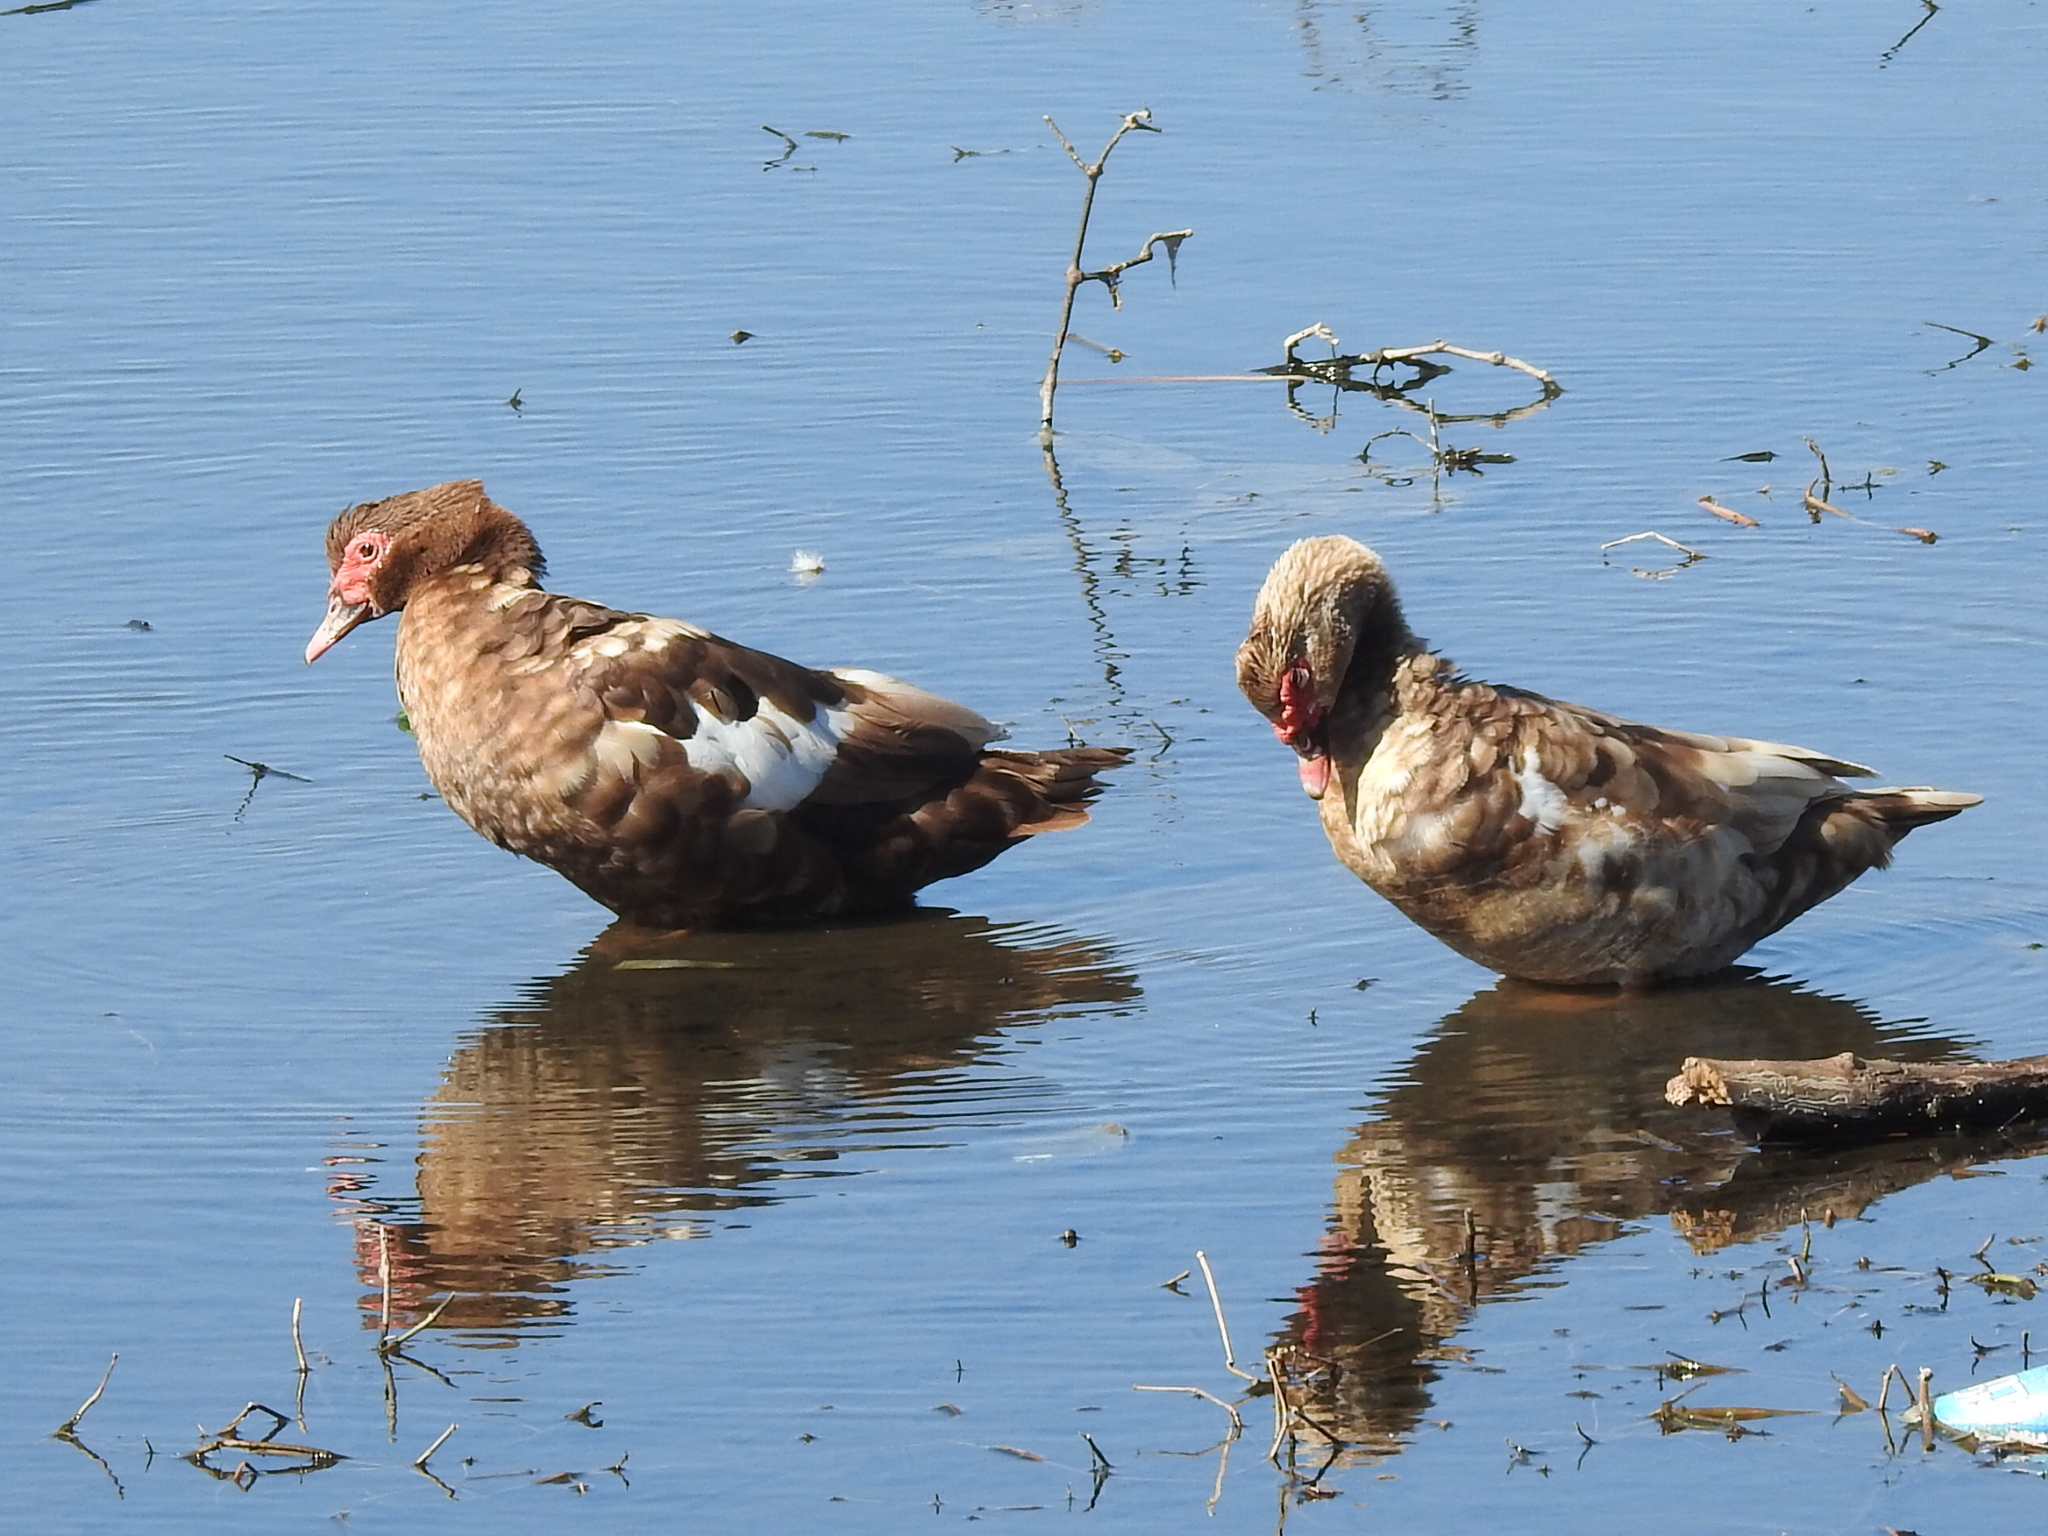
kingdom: Animalia
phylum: Chordata
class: Aves
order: Anseriformes
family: Anatidae
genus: Cairina
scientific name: Cairina moschata
